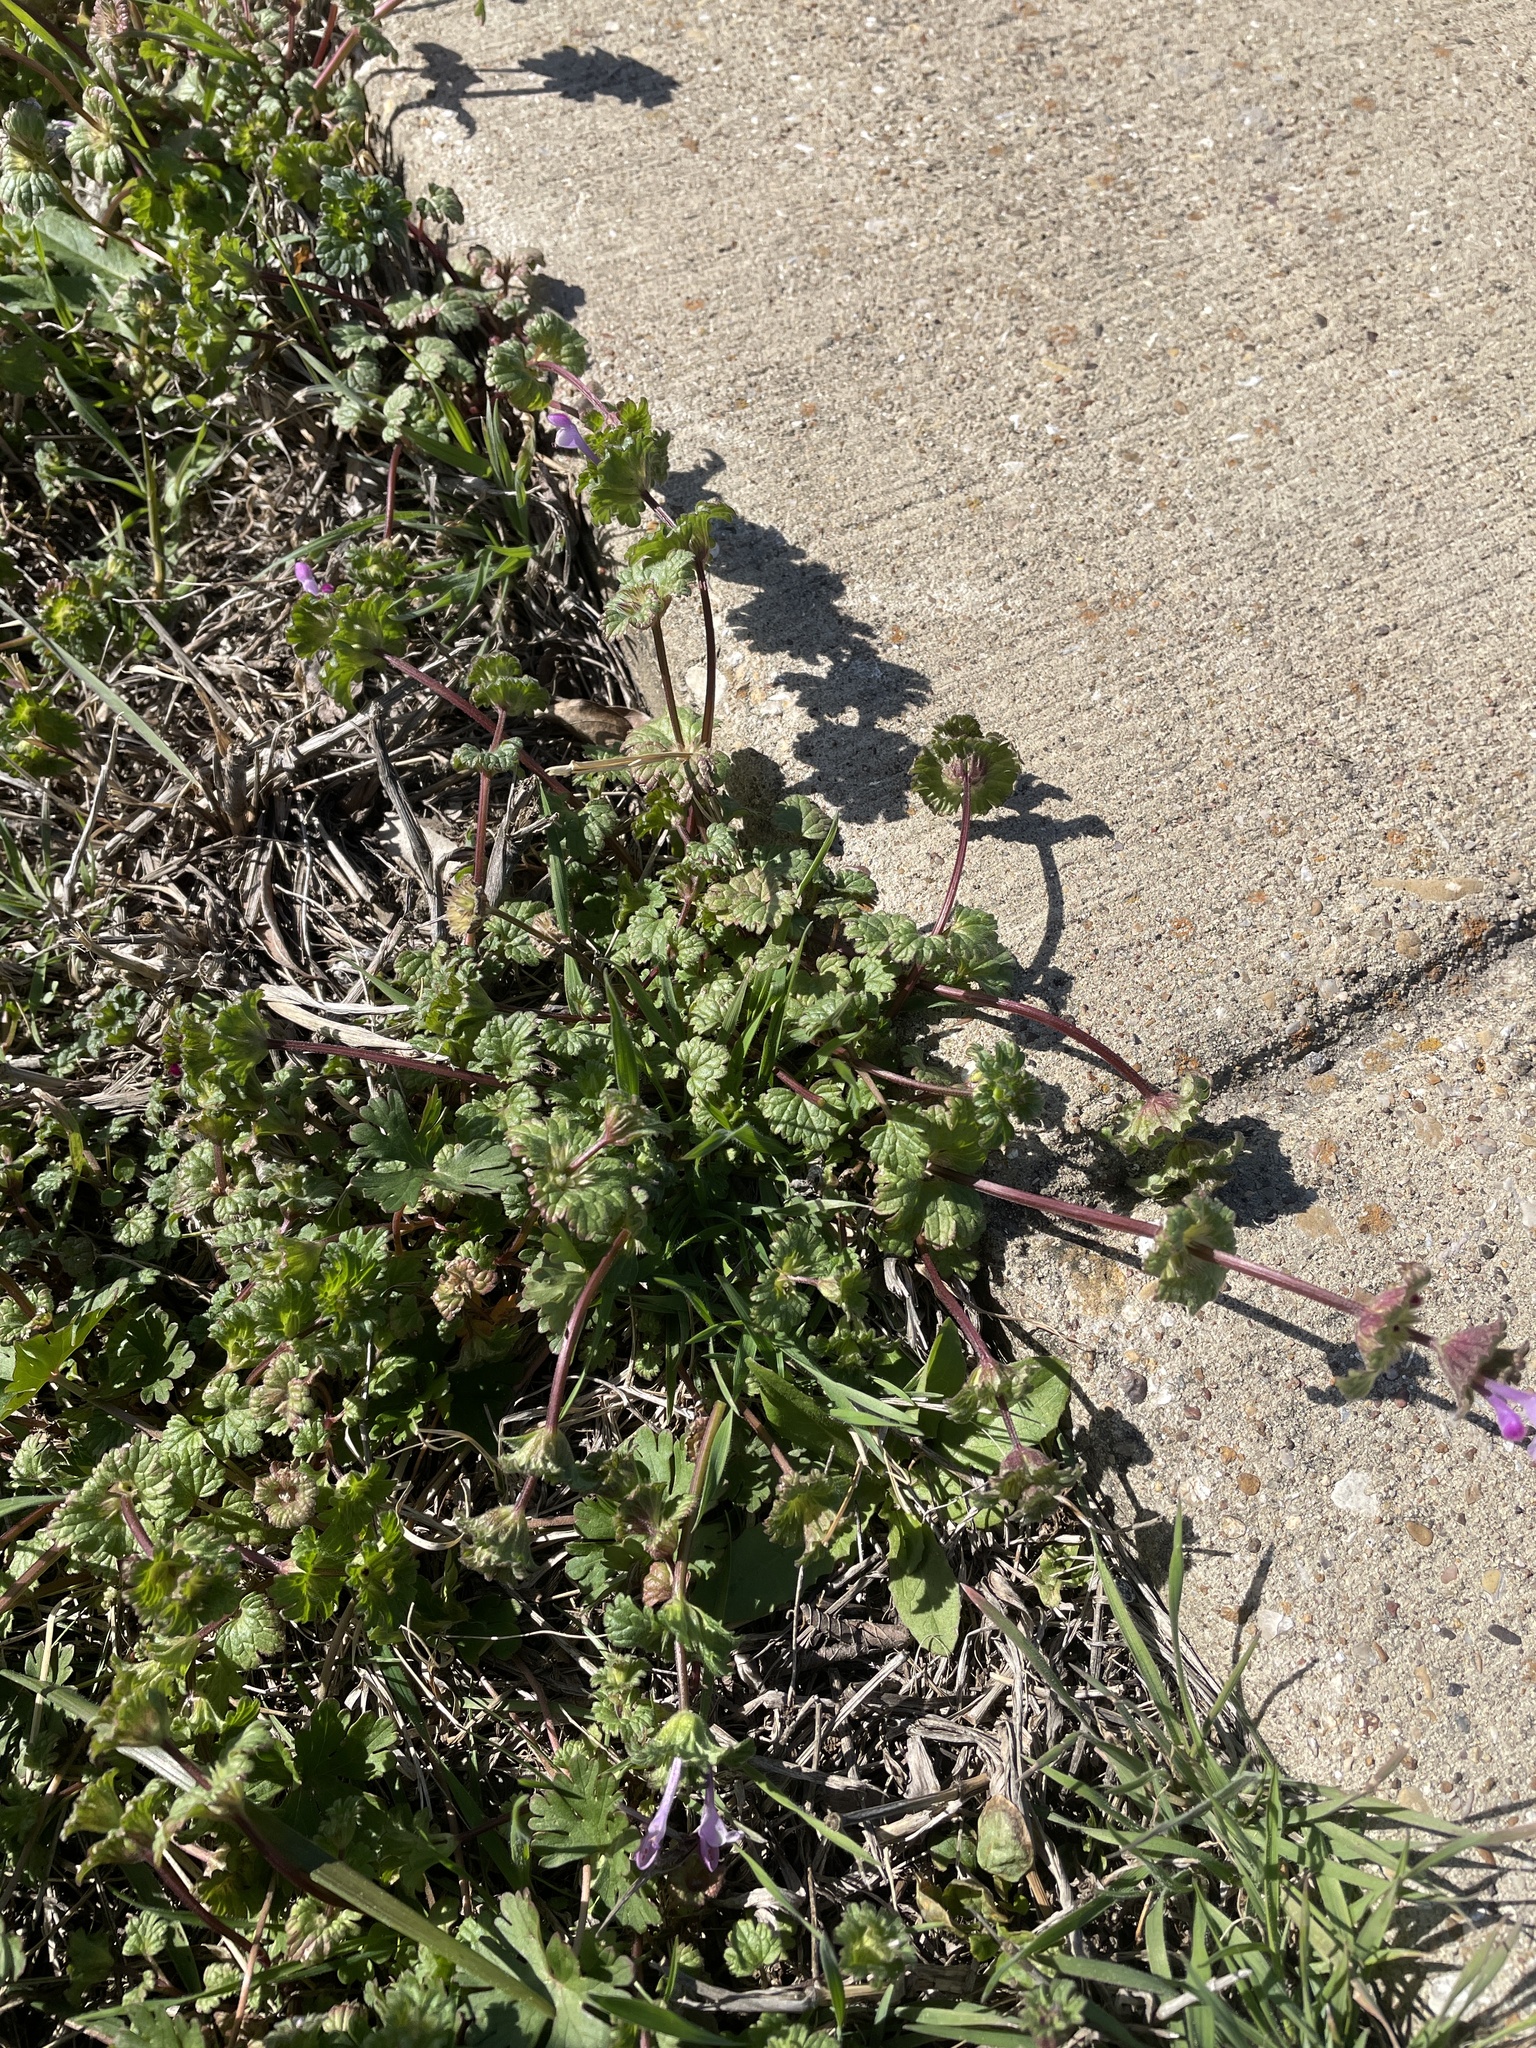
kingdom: Plantae
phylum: Tracheophyta
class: Magnoliopsida
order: Lamiales
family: Lamiaceae
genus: Lamium
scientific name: Lamium amplexicaule
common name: Henbit dead-nettle
